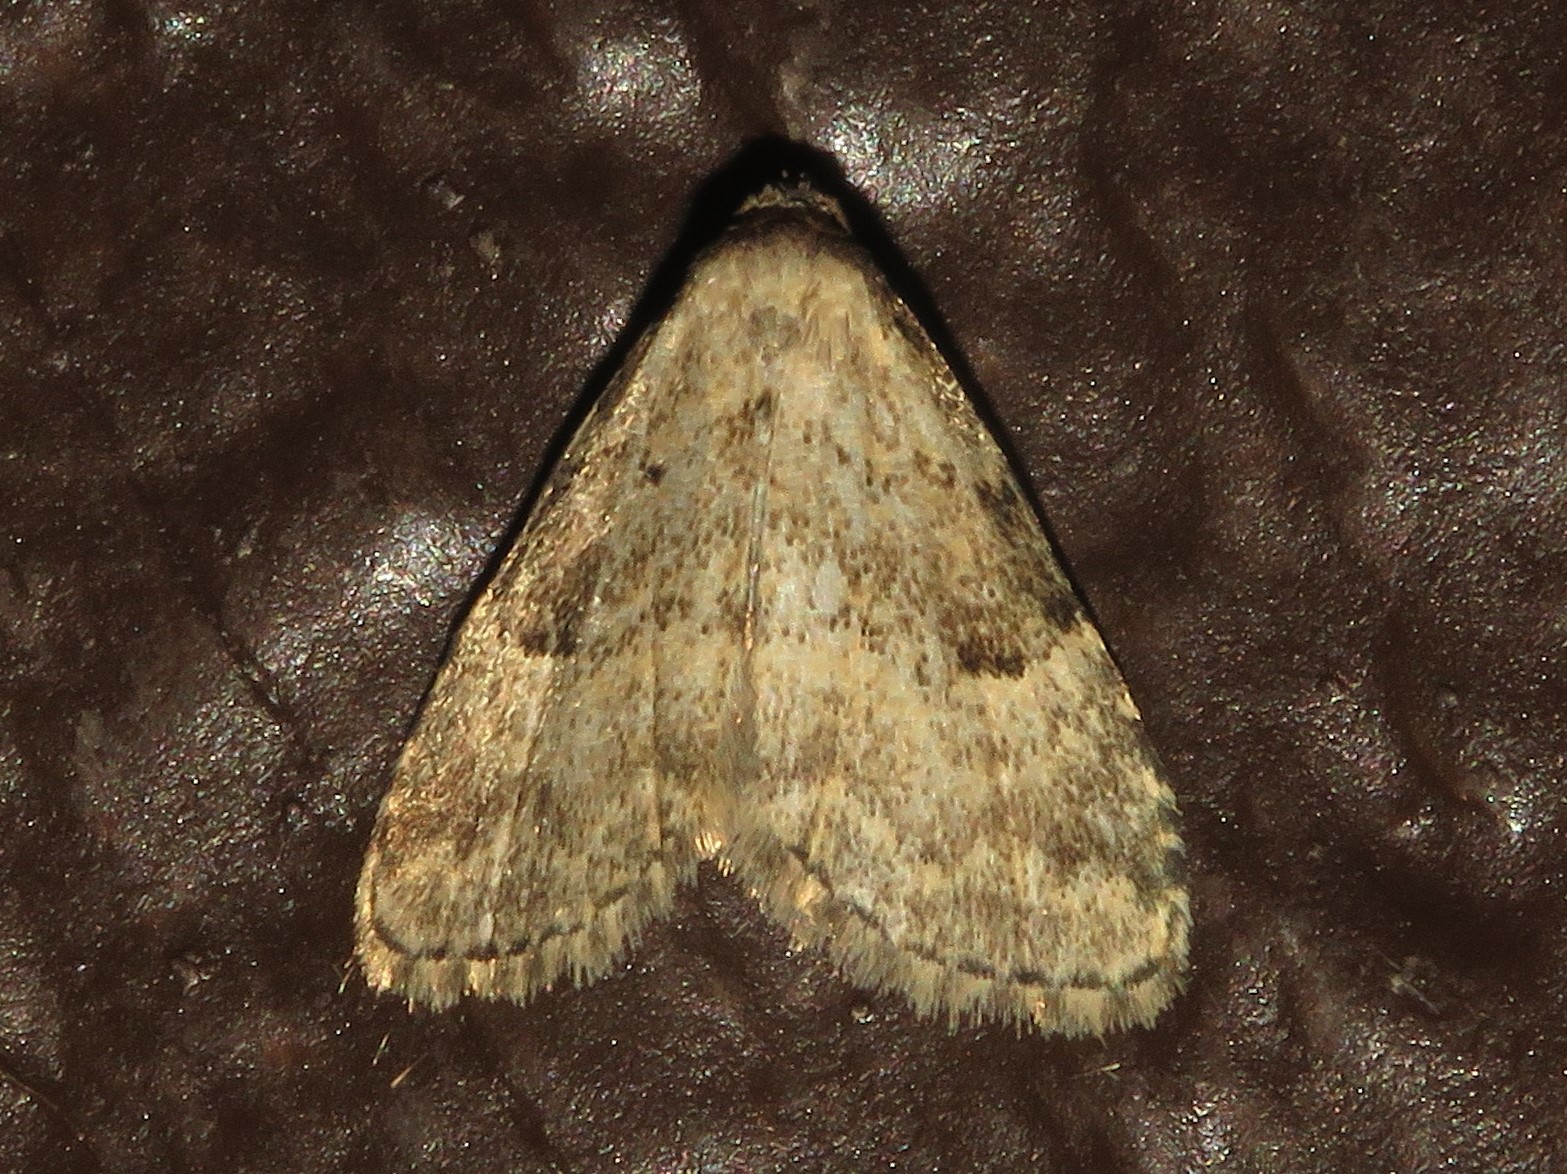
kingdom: Animalia
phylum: Arthropoda
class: Insecta
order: Lepidoptera
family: Erebidae
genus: Dyspyralis
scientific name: Dyspyralis illocata
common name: Visitation moth
